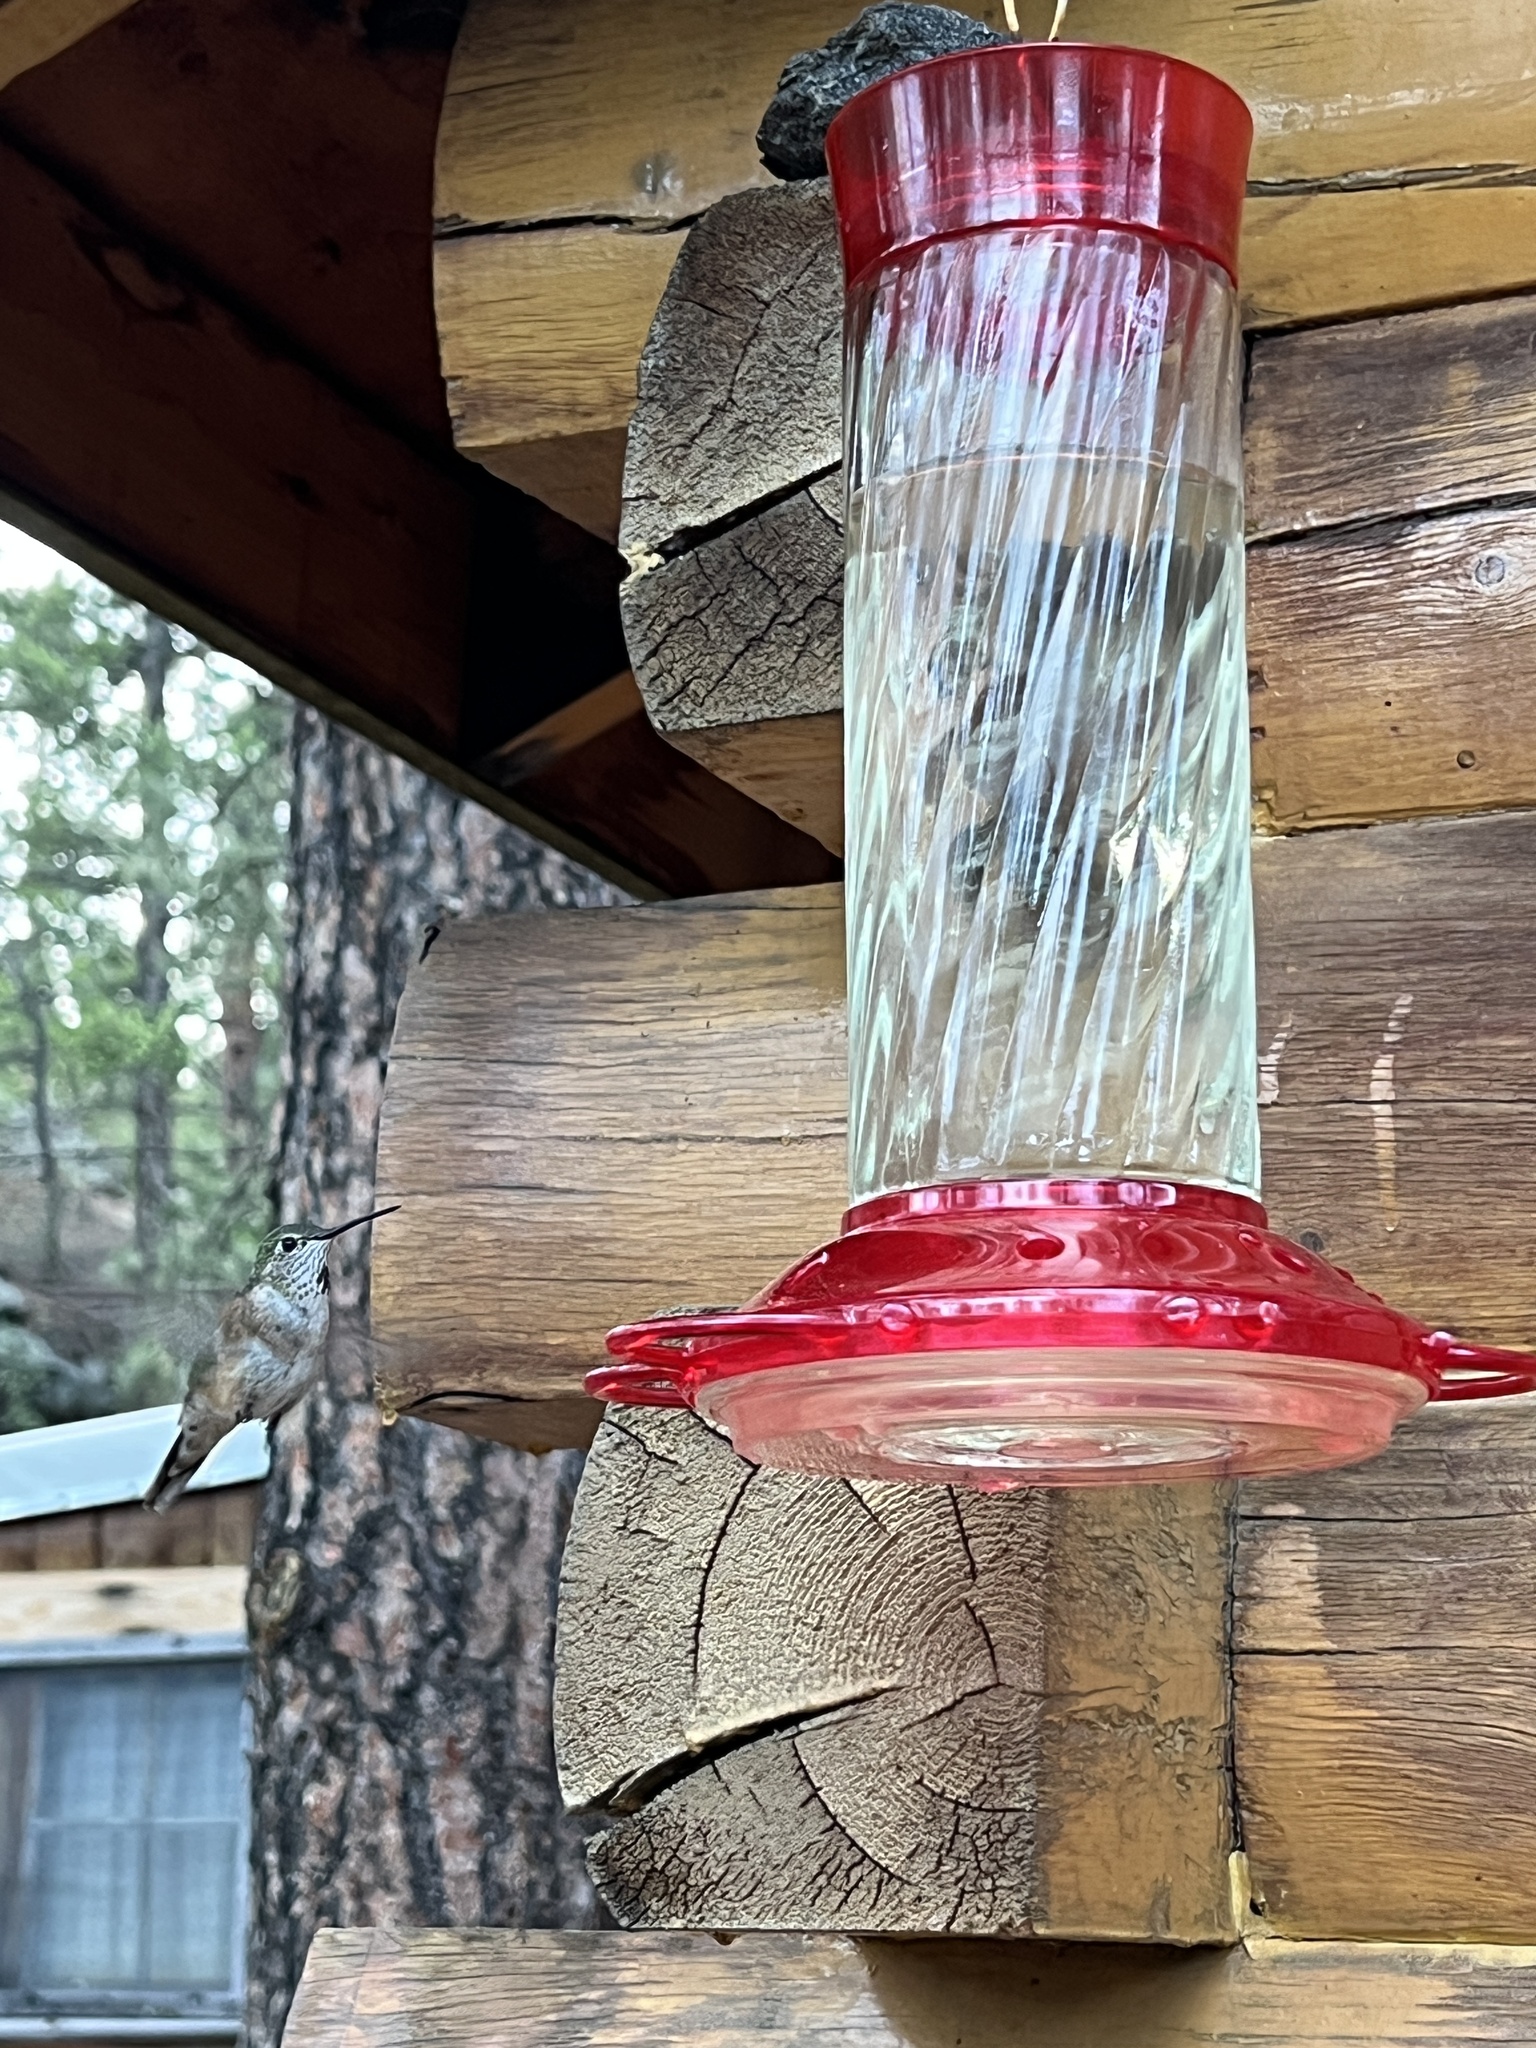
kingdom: Animalia
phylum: Chordata
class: Aves
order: Apodiformes
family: Trochilidae
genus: Selasphorus
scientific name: Selasphorus platycercus
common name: Broad-tailed hummingbird
